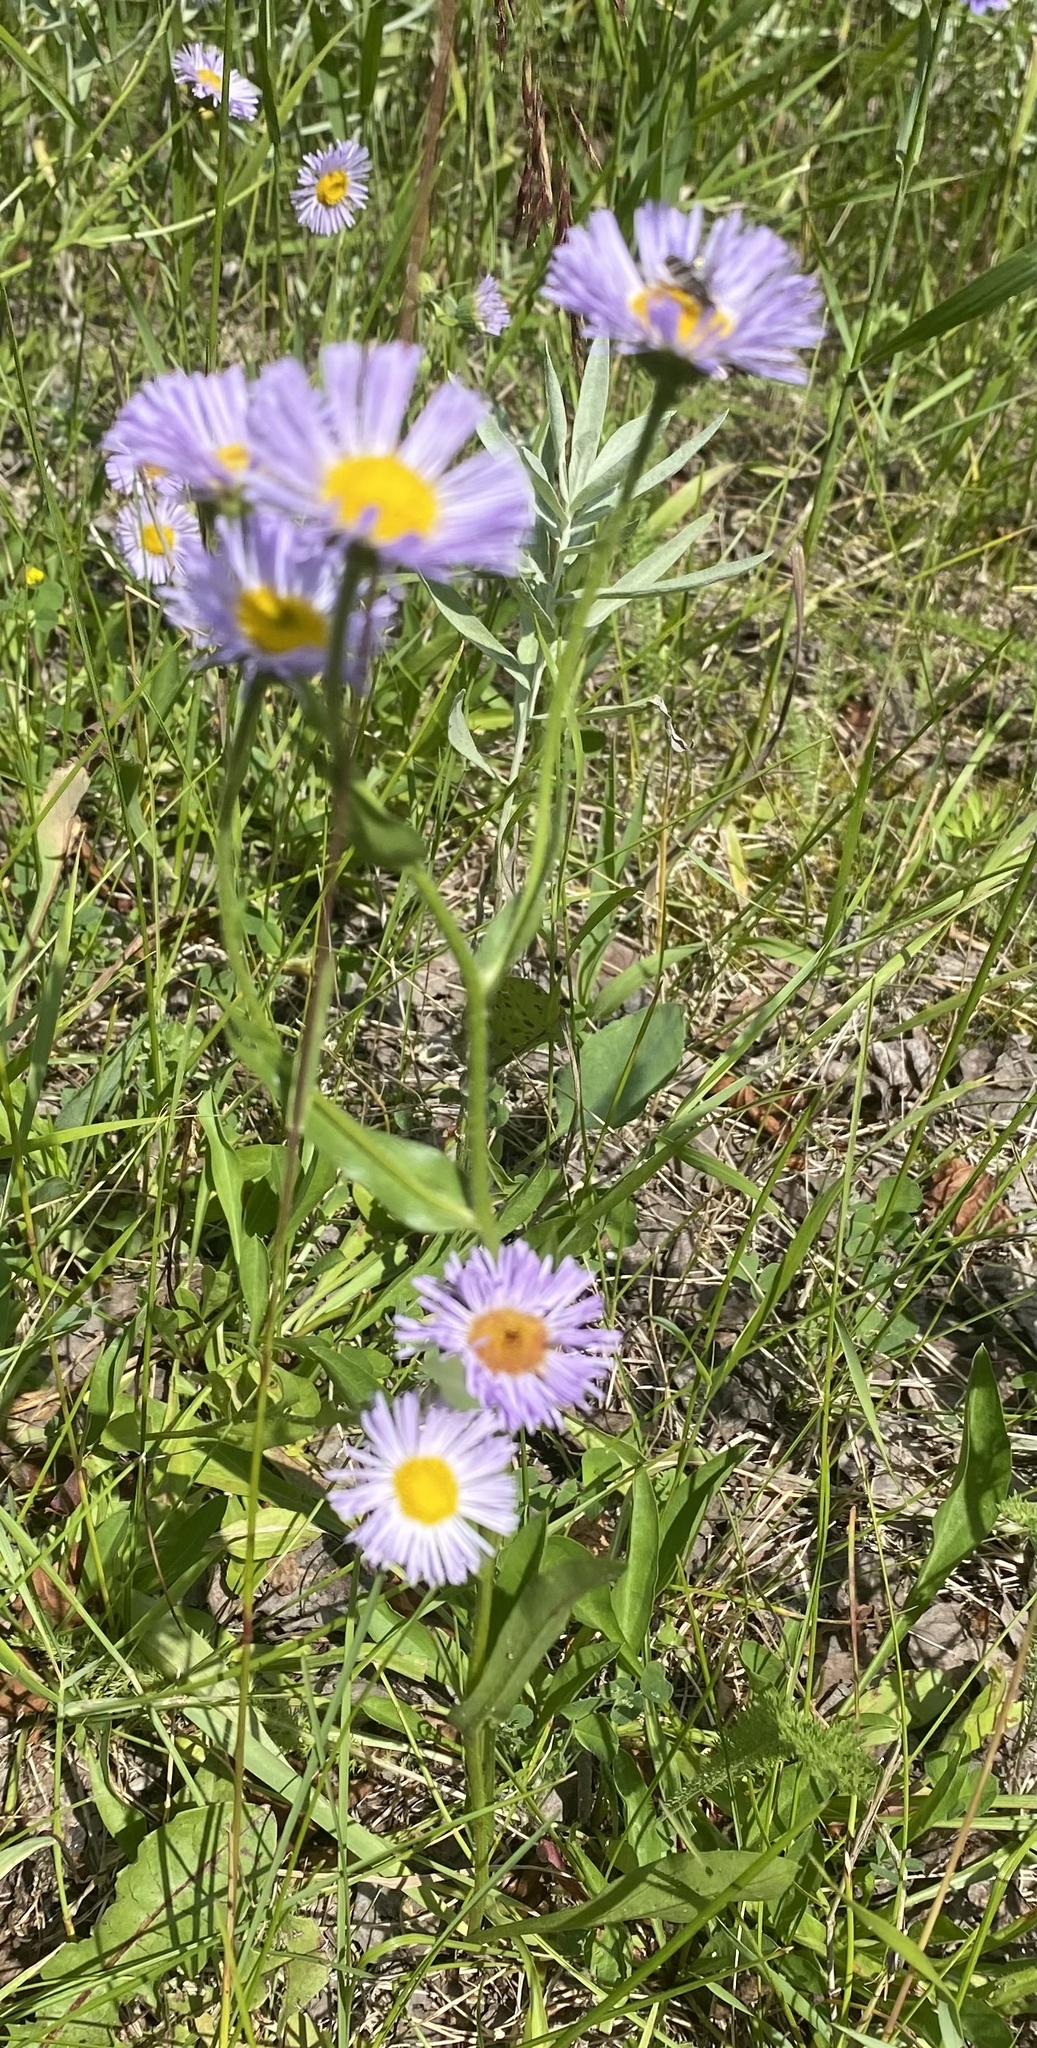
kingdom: Plantae
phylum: Tracheophyta
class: Magnoliopsida
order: Asterales
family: Asteraceae
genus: Erigeron
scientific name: Erigeron glabellus
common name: Smooth fleabane
